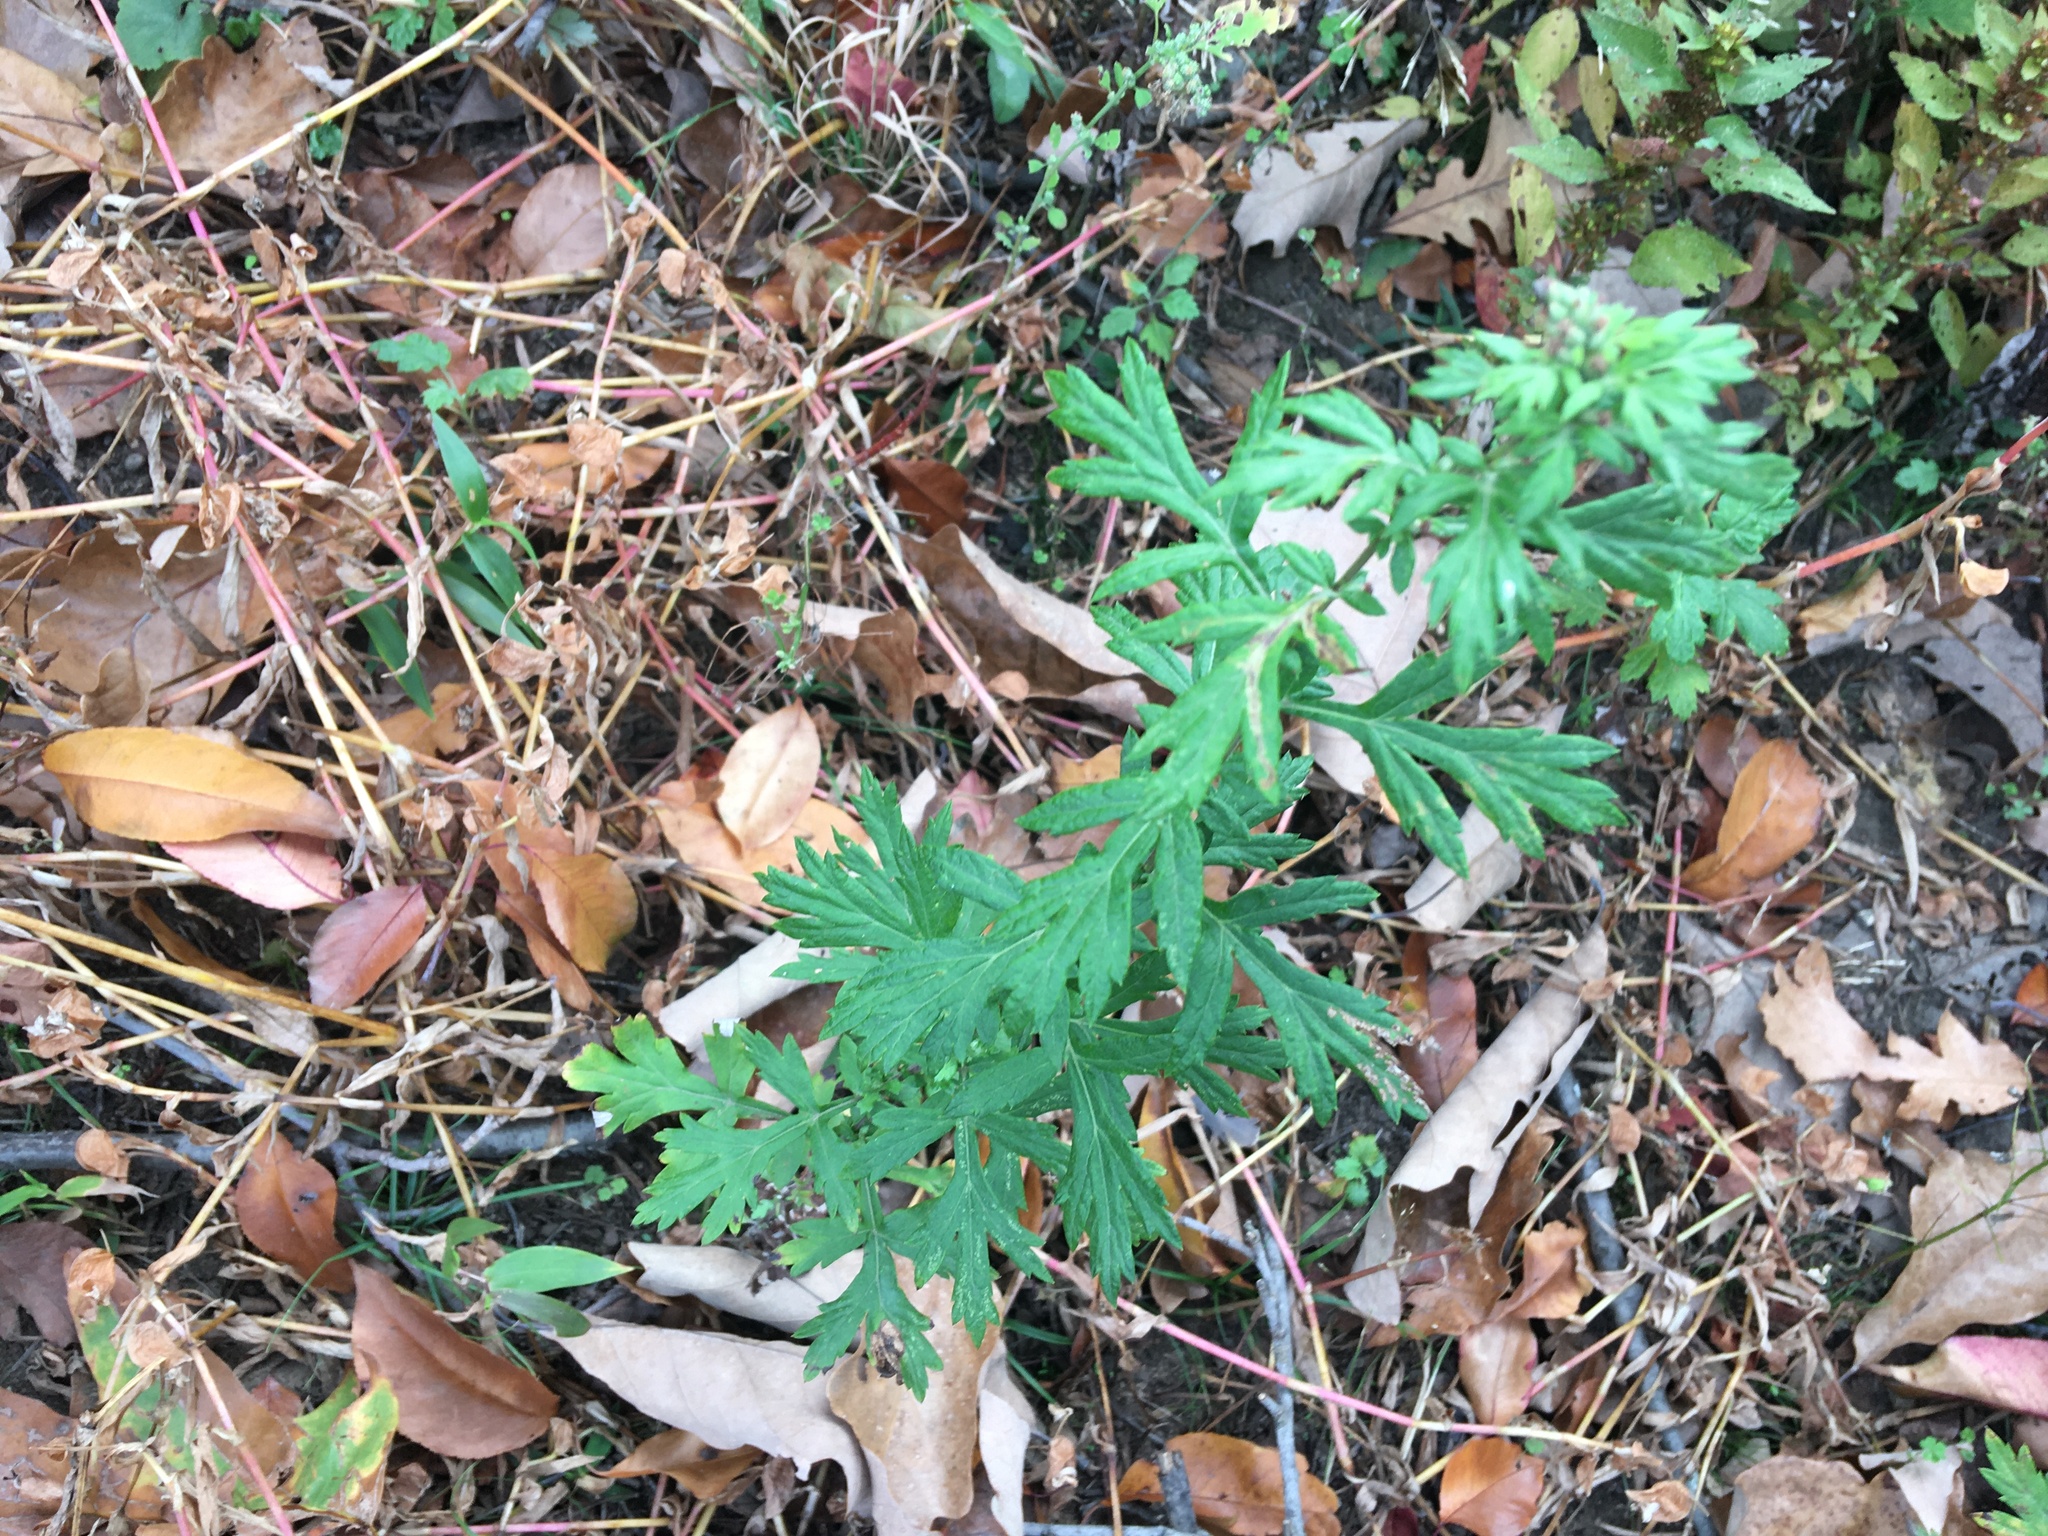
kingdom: Plantae
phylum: Tracheophyta
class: Magnoliopsida
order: Asterales
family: Asteraceae
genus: Artemisia
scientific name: Artemisia vulgaris
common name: Mugwort
